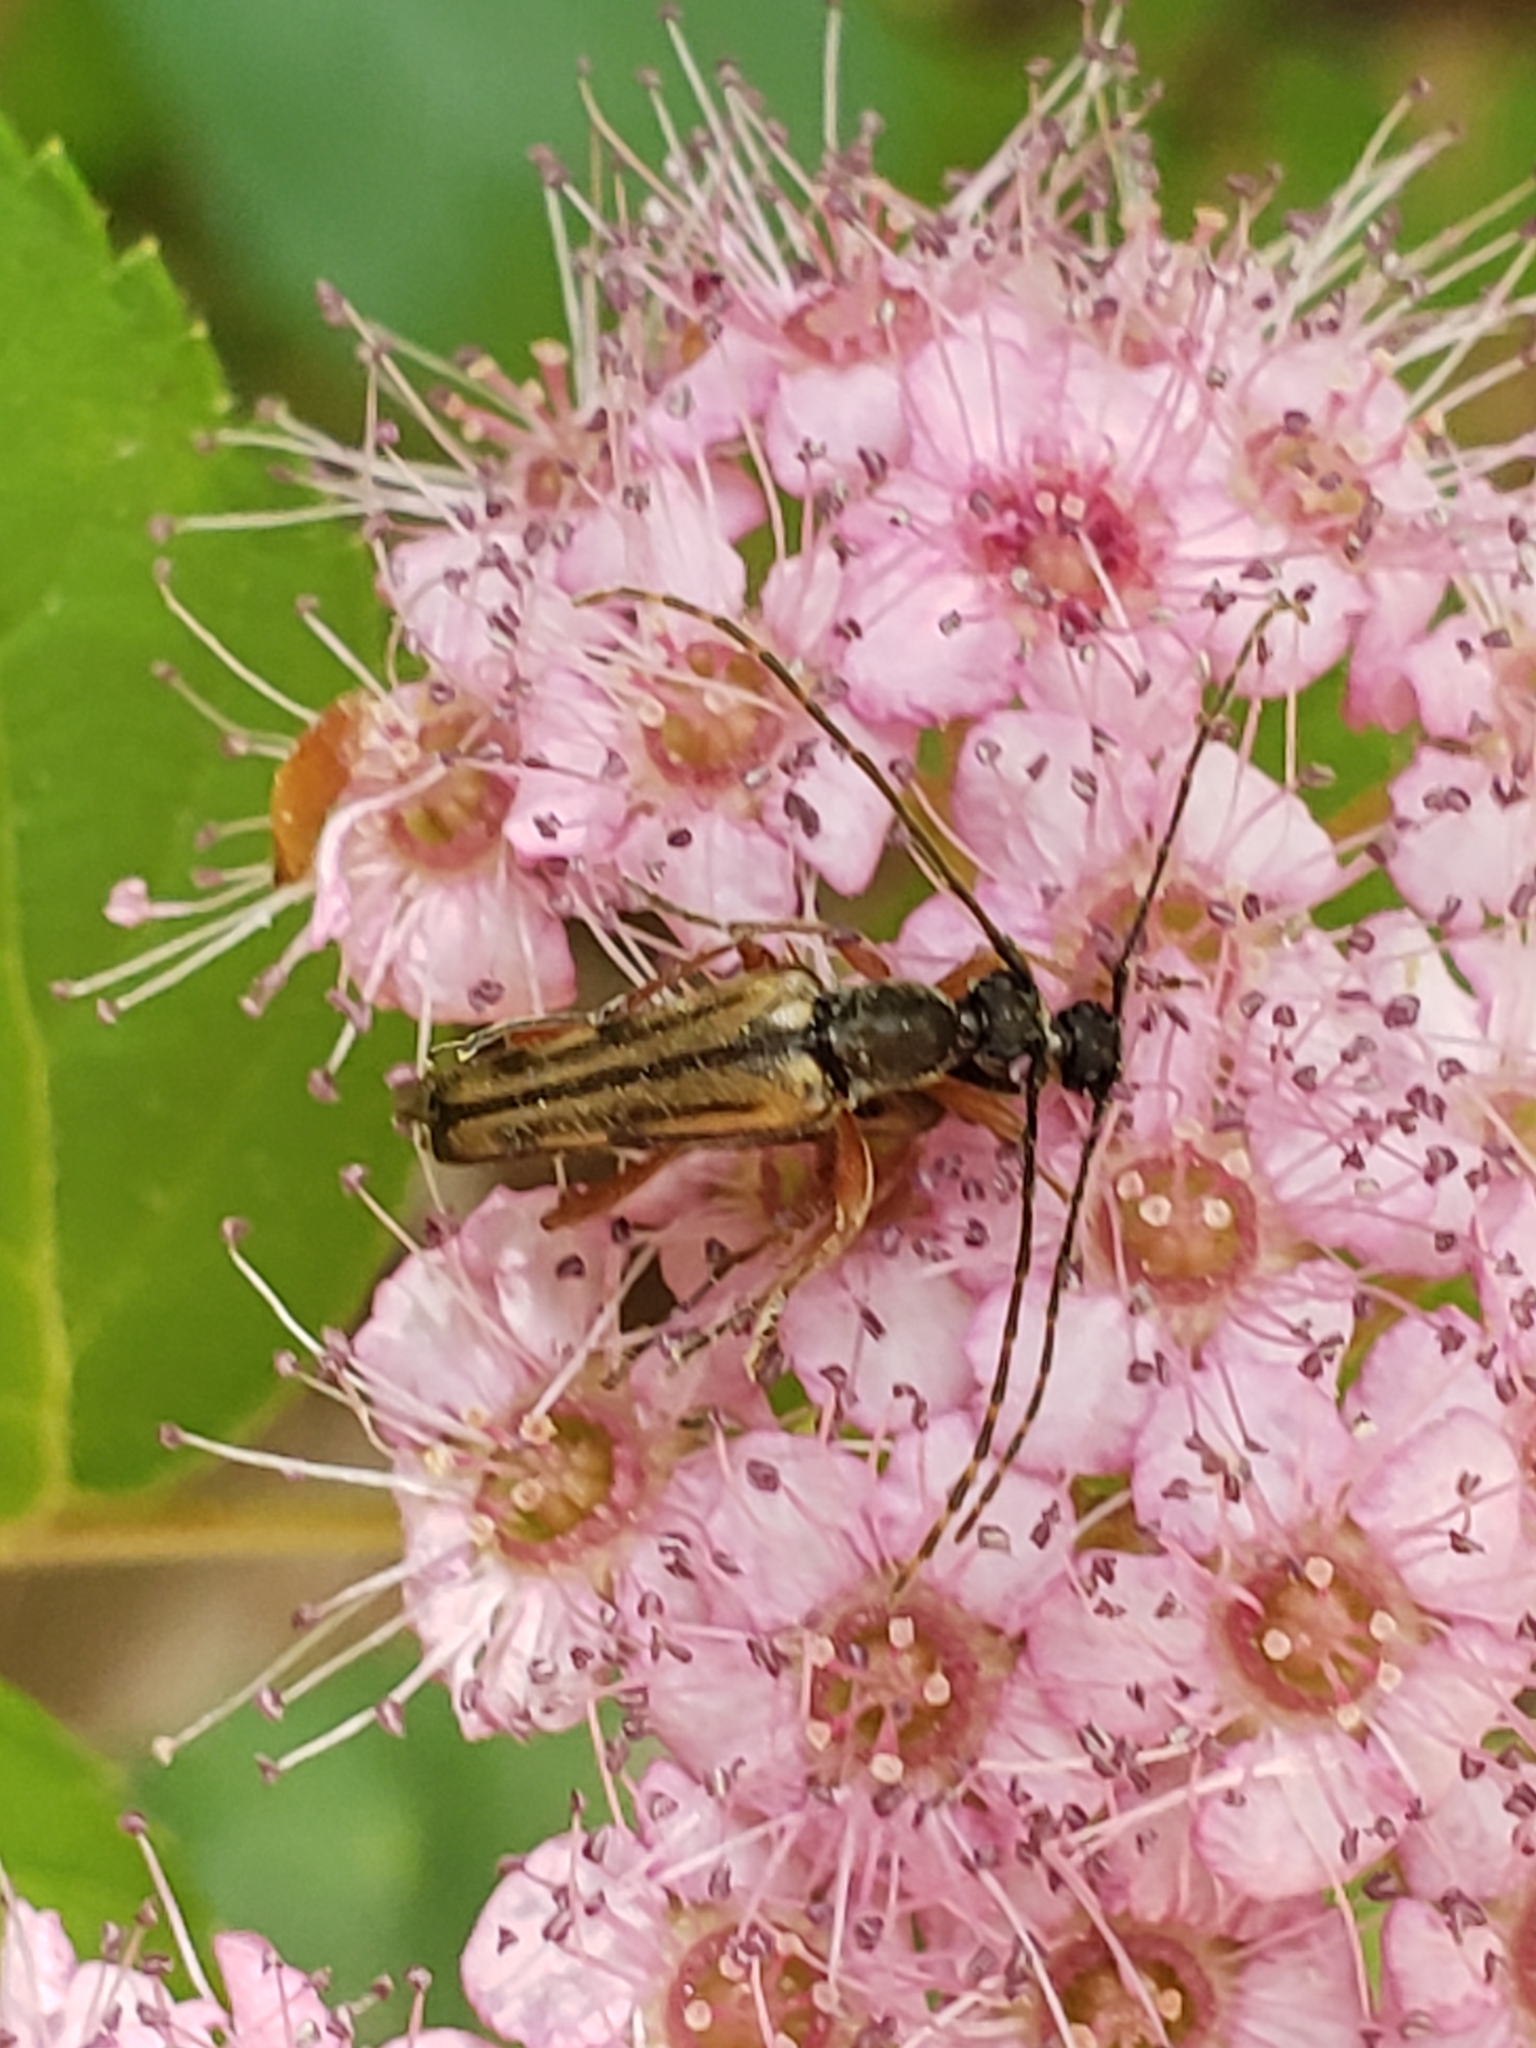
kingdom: Animalia
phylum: Arthropoda
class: Insecta
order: Coleoptera
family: Cerambycidae
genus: Analeptura
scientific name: Analeptura lineola
